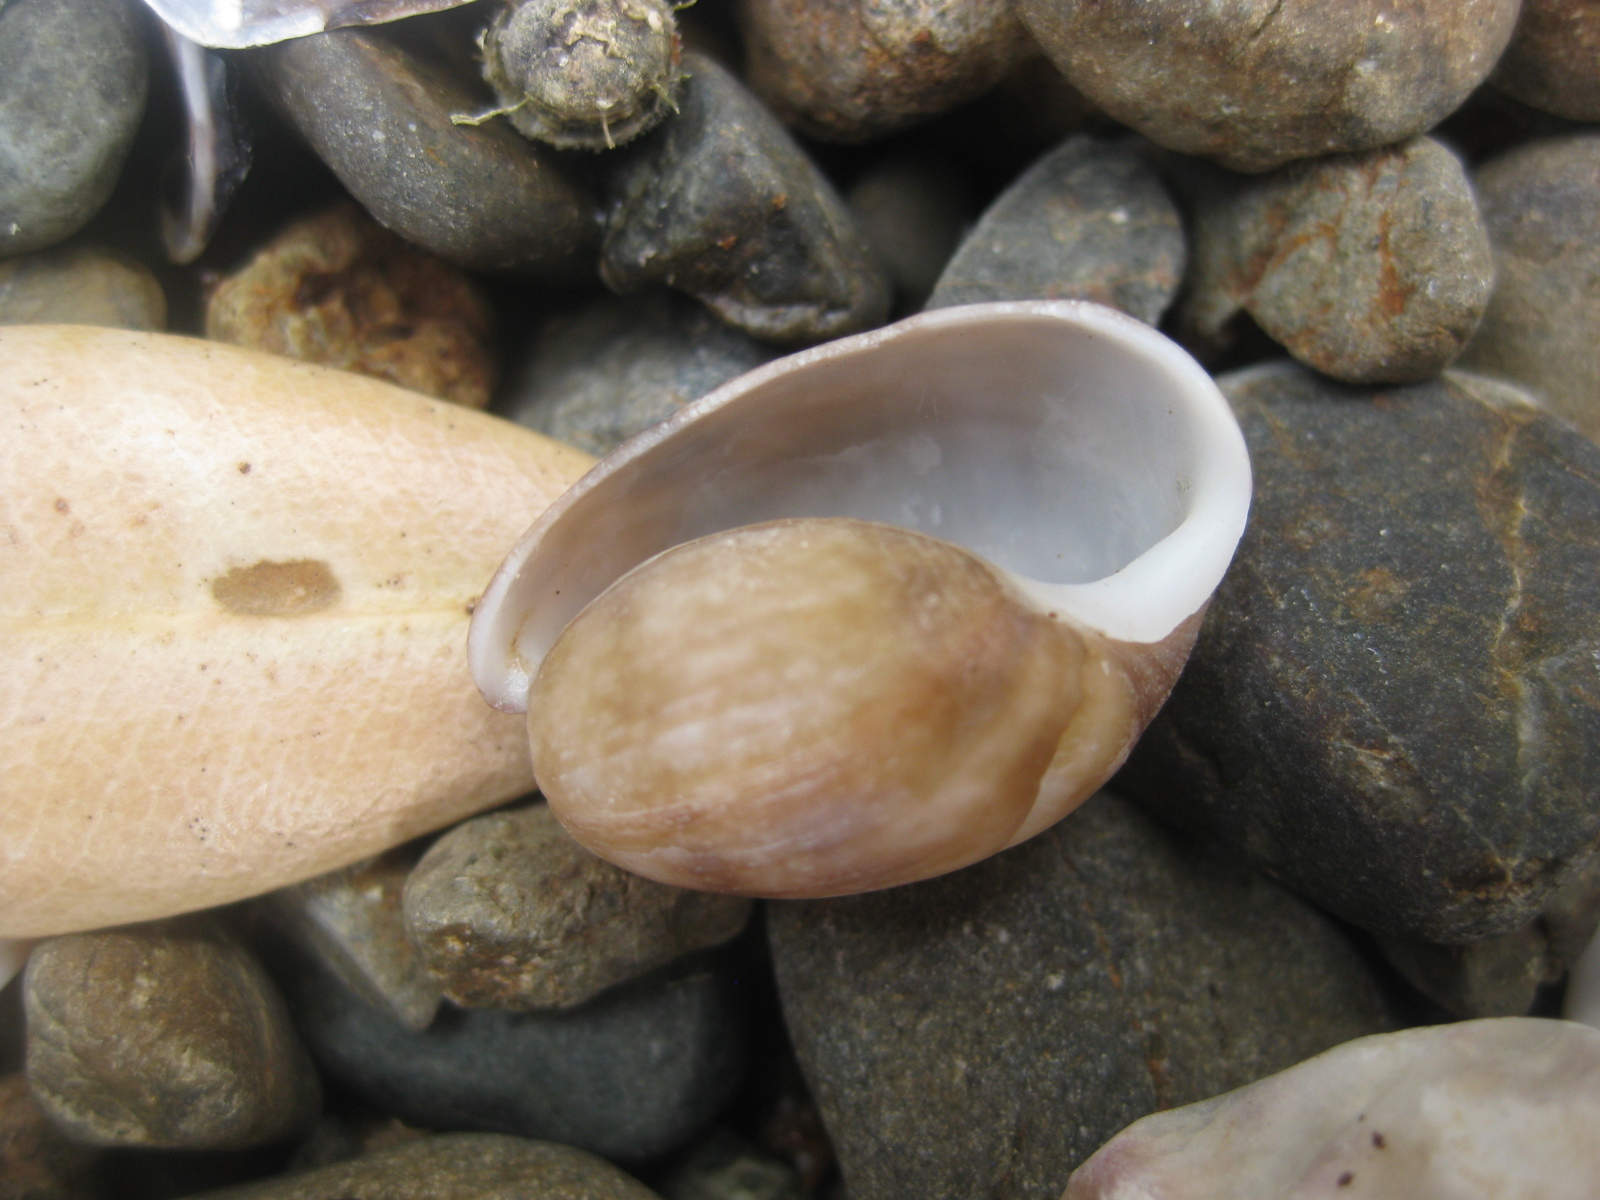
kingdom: Animalia
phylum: Mollusca
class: Gastropoda
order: Cephalaspidea
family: Bullidae
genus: Bulla
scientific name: Bulla quoyii
